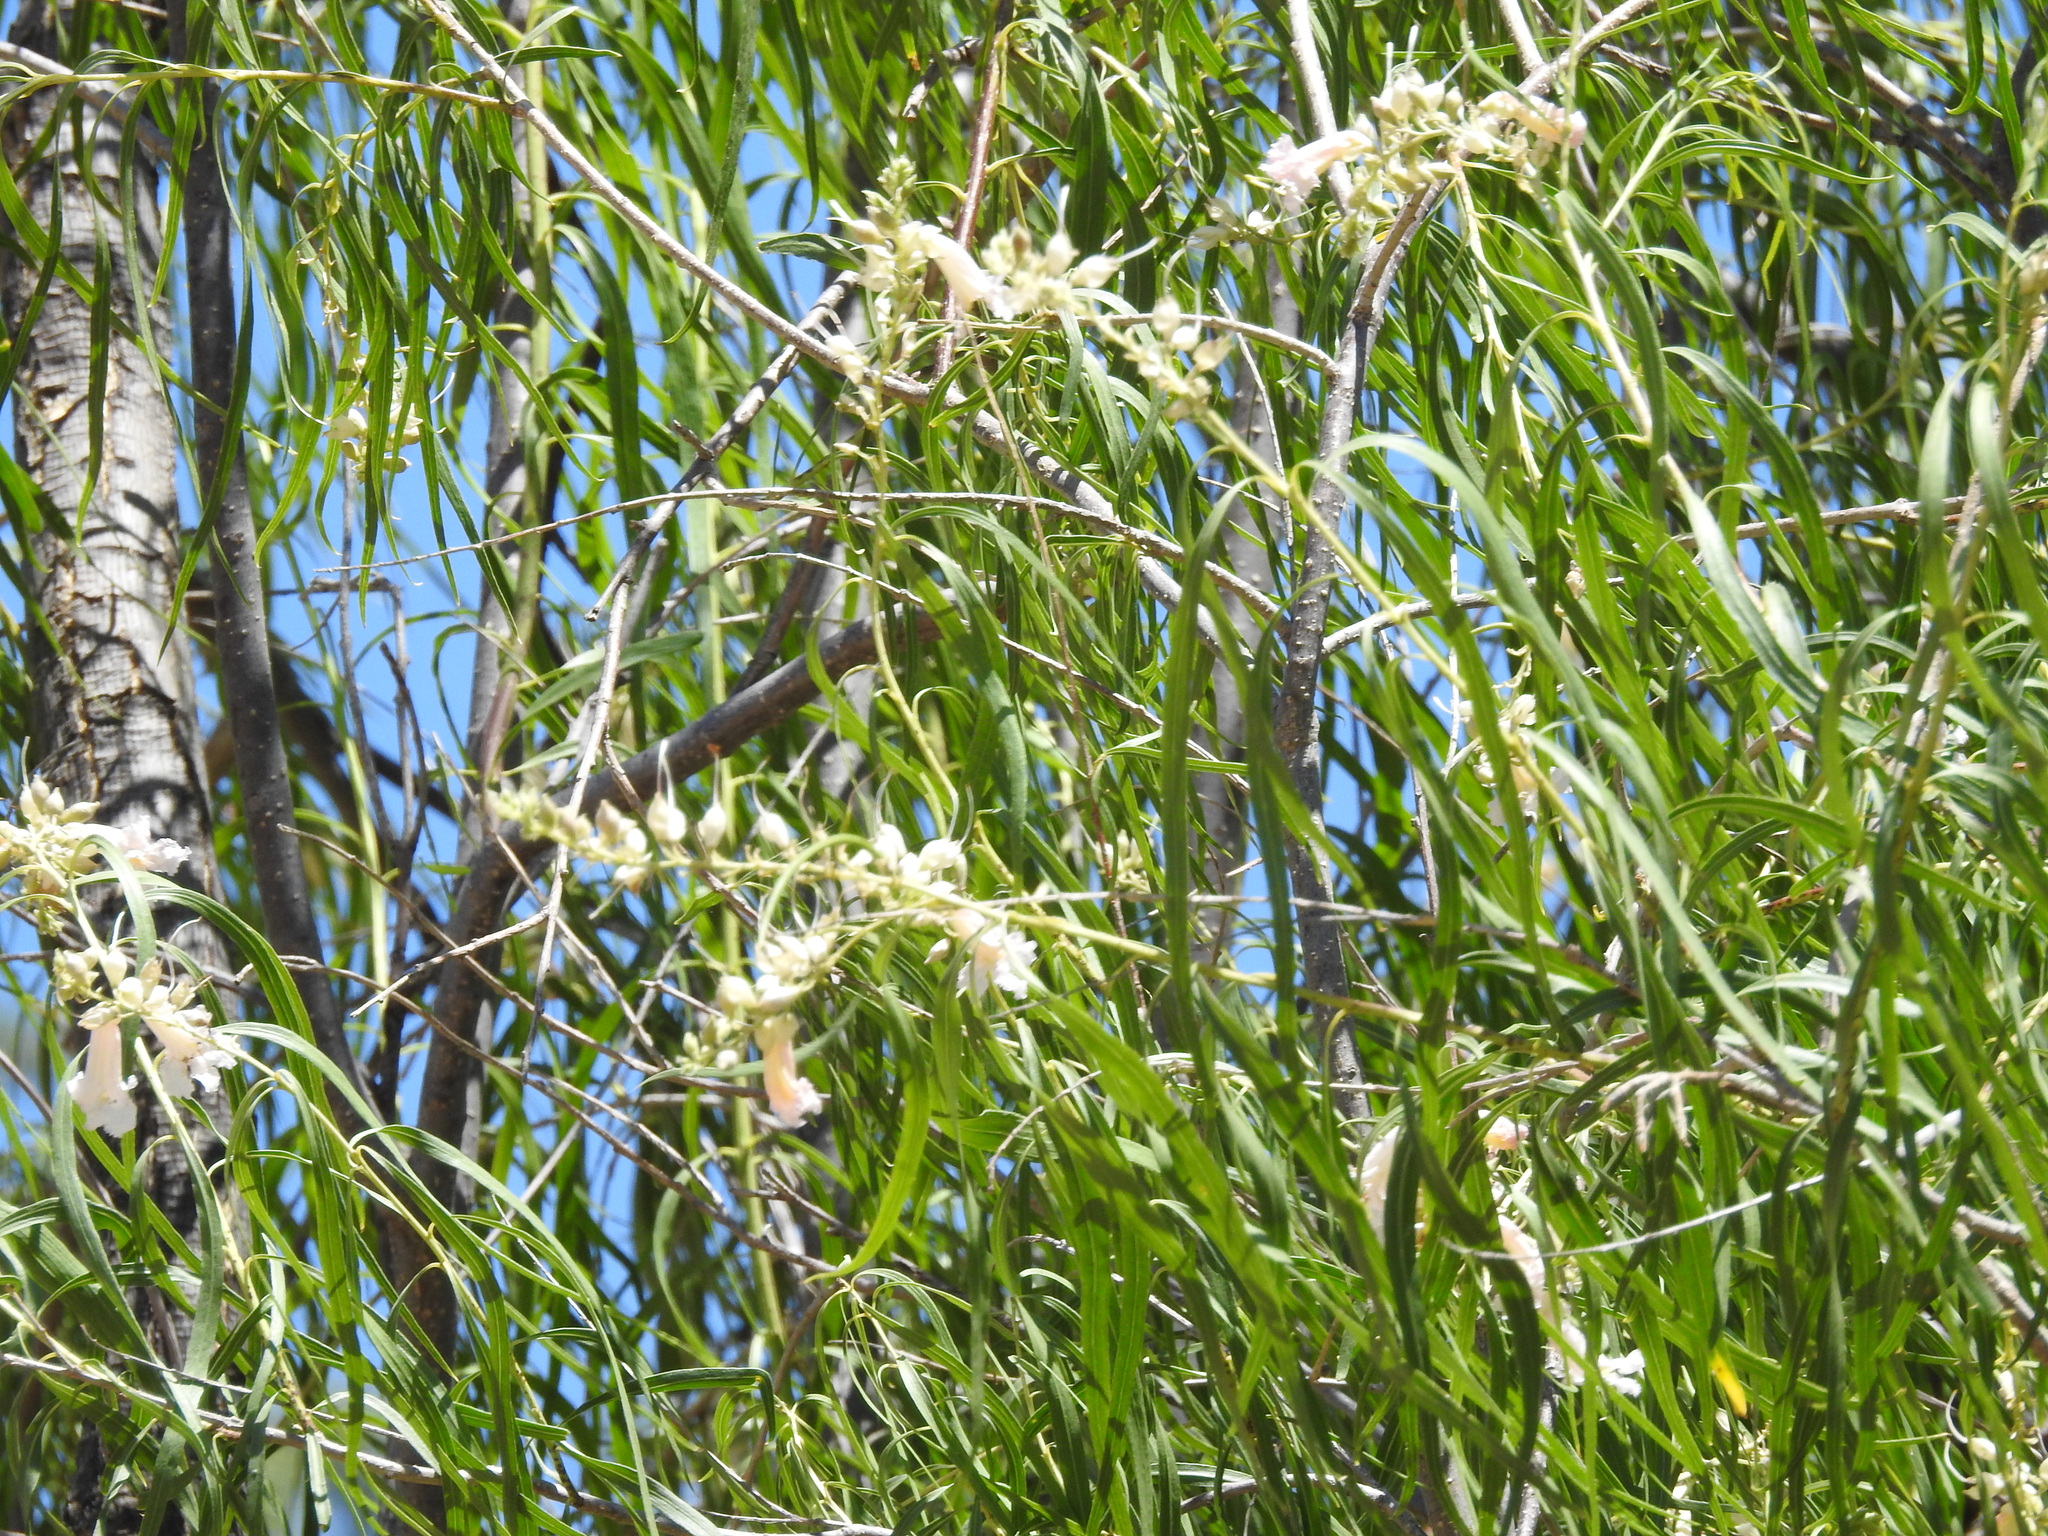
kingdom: Plantae
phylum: Tracheophyta
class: Magnoliopsida
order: Lamiales
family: Bignoniaceae
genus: Chilopsis
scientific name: Chilopsis linearis
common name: Desert-willow
